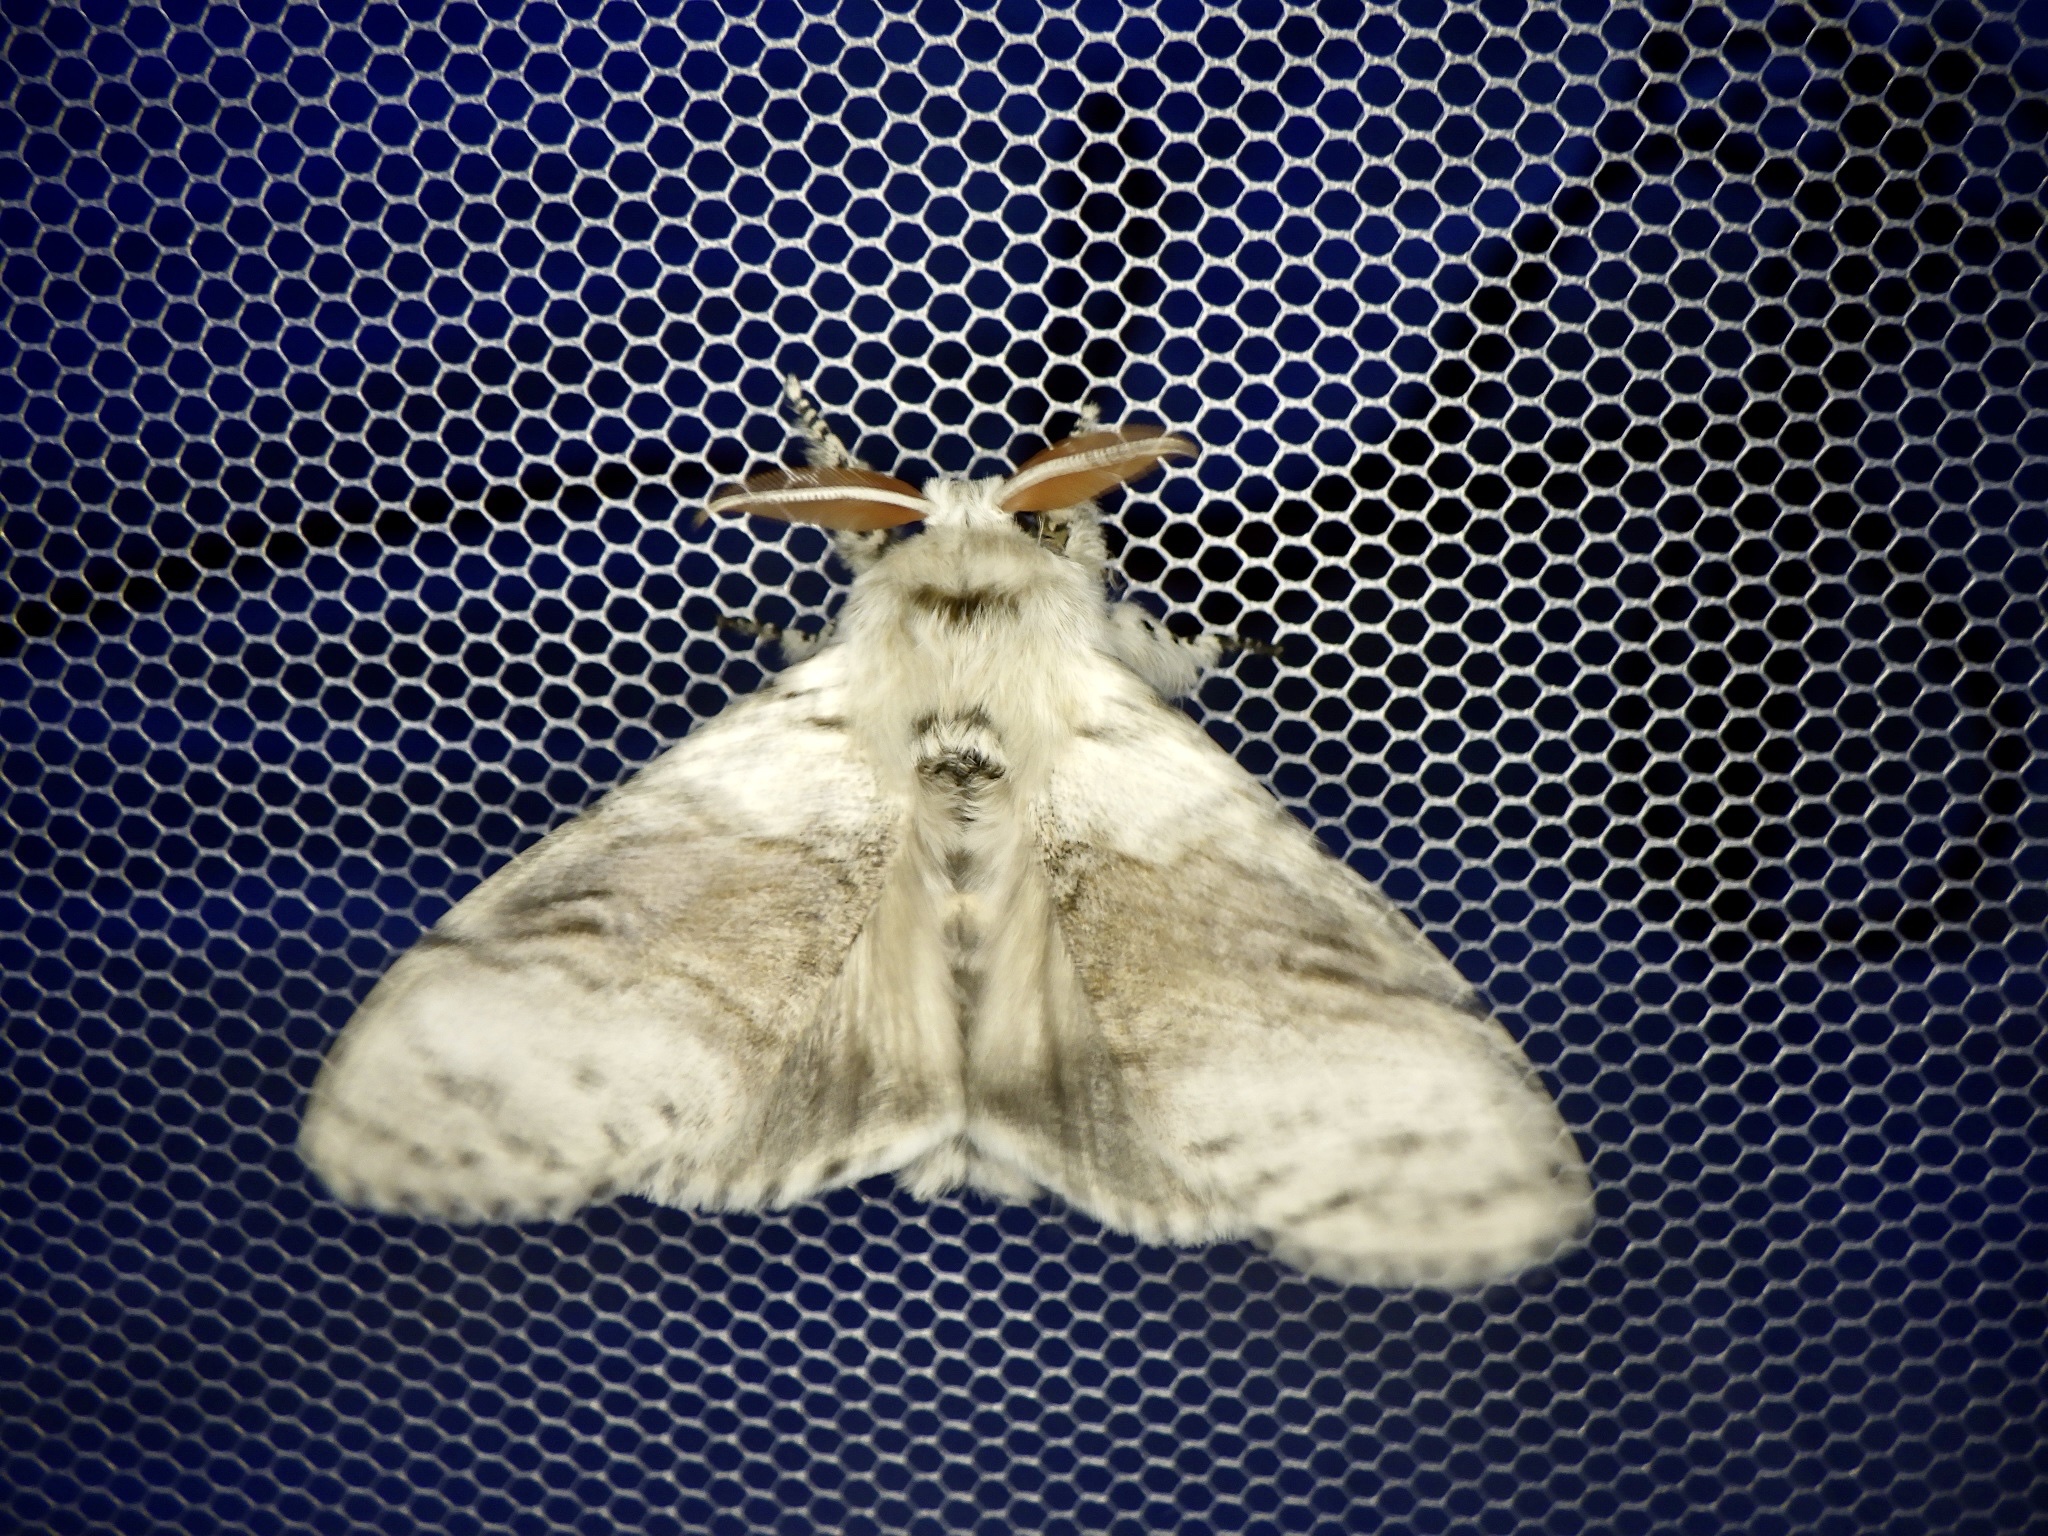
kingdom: Animalia
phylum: Arthropoda
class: Insecta
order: Lepidoptera
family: Erebidae
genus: Calliteara
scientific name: Calliteara
